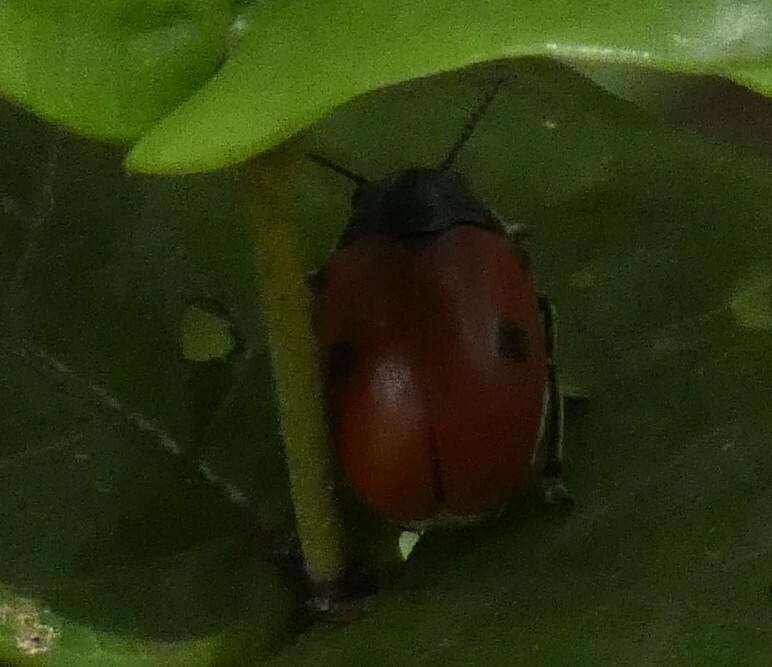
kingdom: Animalia
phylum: Arthropoda
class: Insecta
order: Coleoptera
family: Chrysomelidae
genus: Megalostomis
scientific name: Megalostomis
